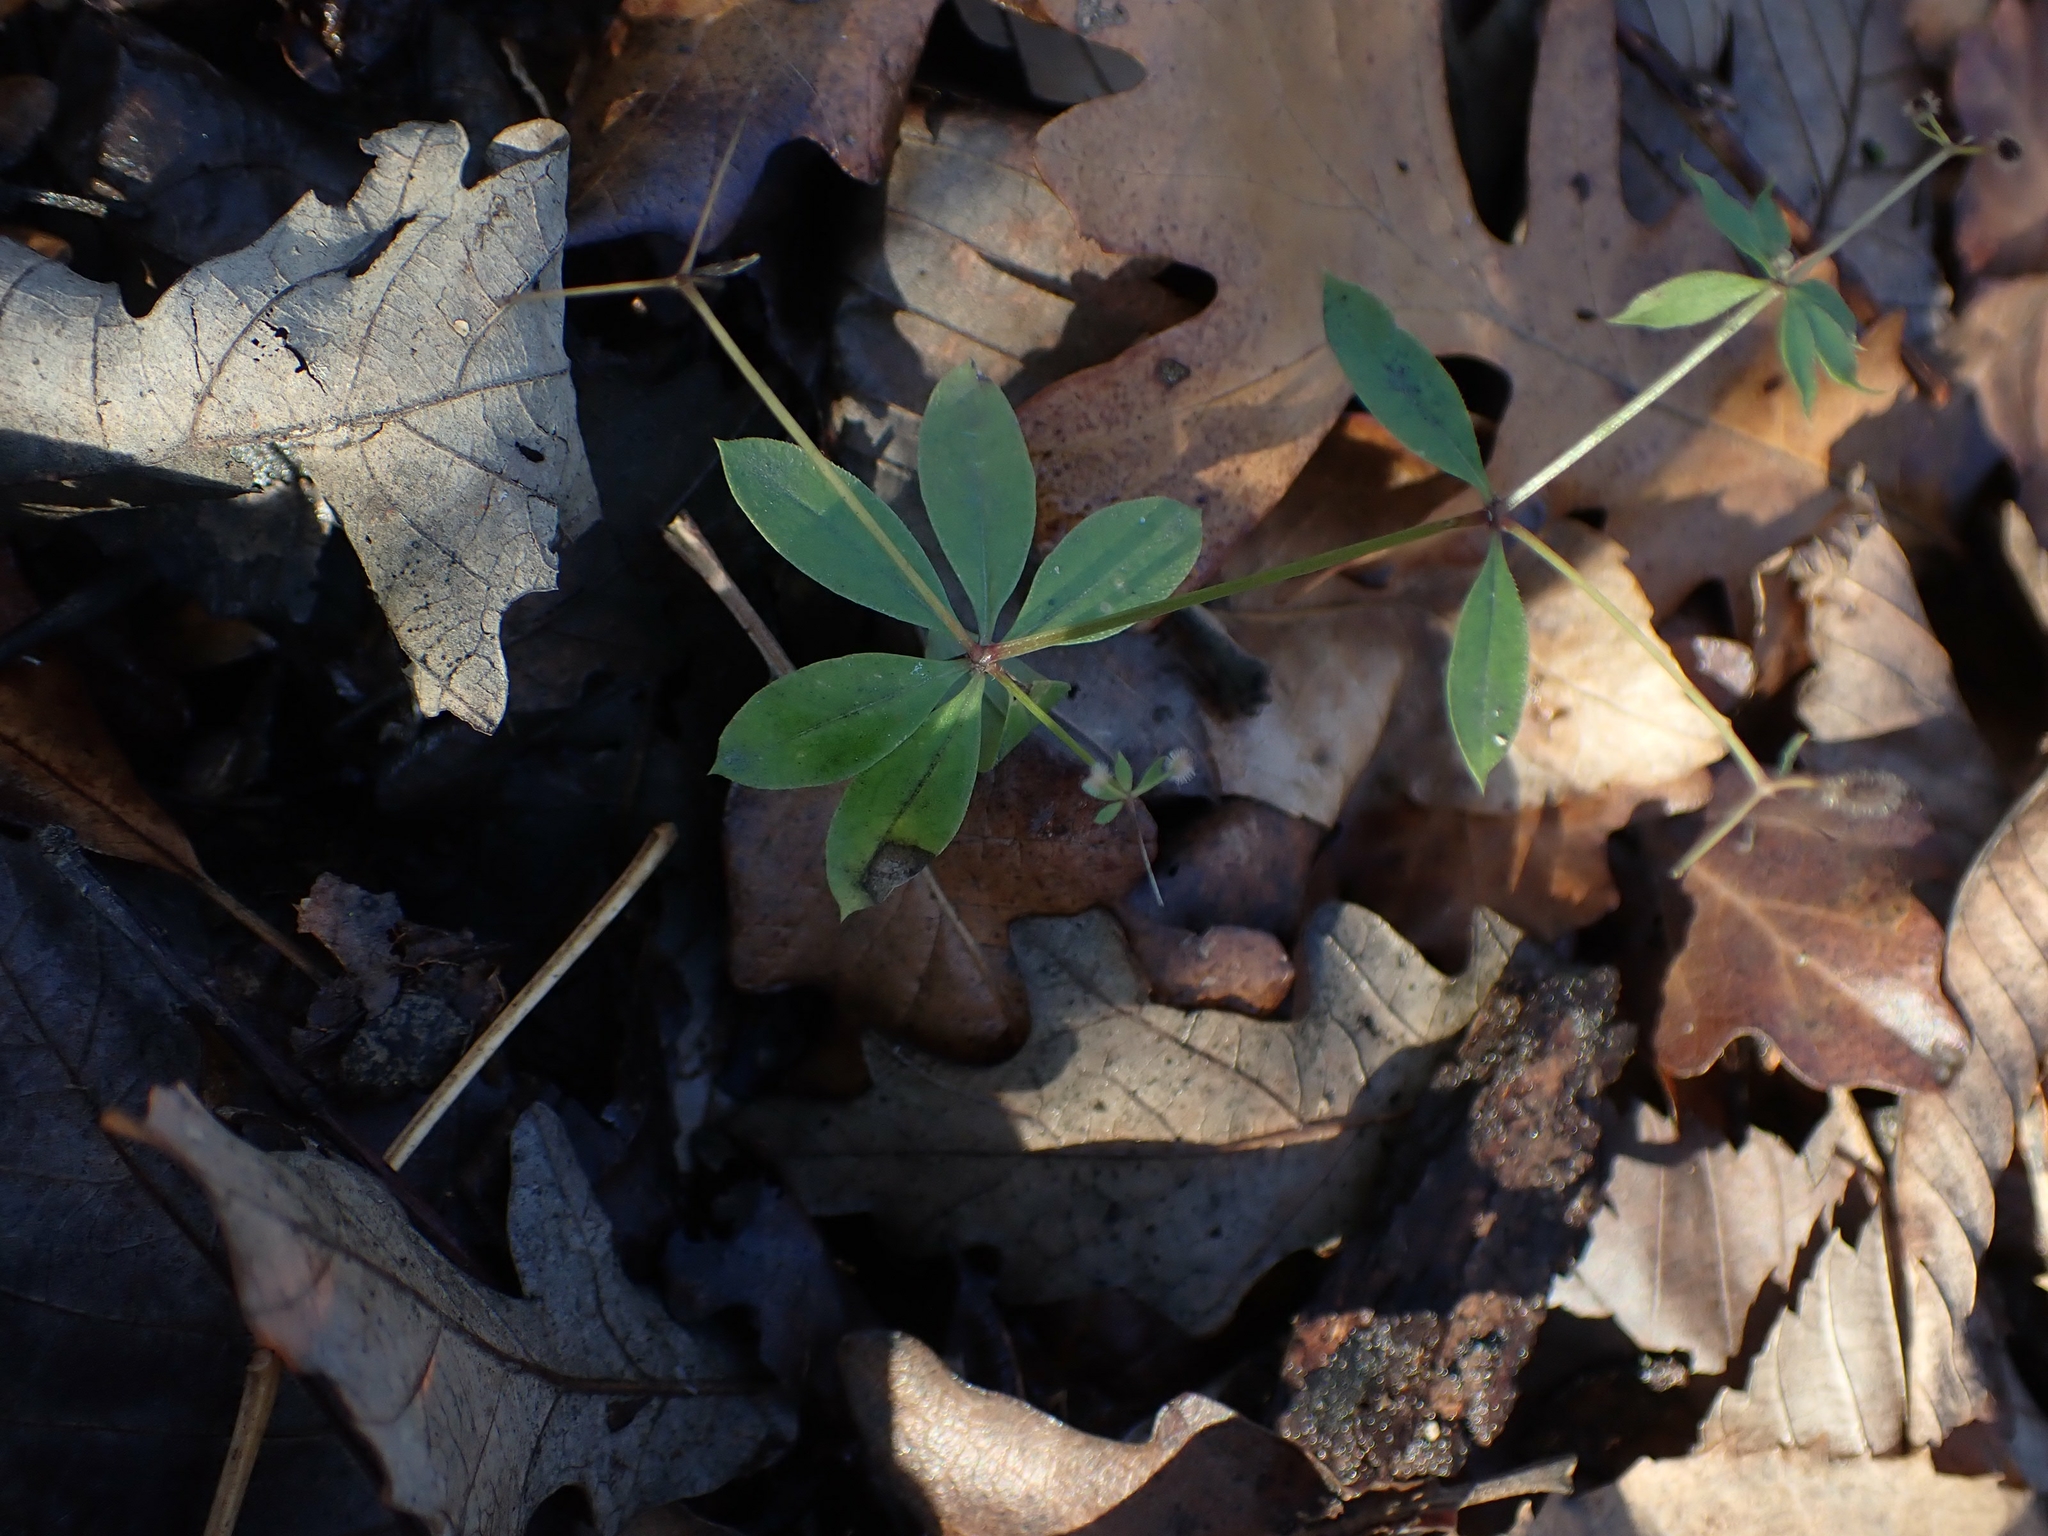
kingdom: Plantae
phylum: Tracheophyta
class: Magnoliopsida
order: Gentianales
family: Rubiaceae
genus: Galium
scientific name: Galium triflorum
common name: Fragrant bedstraw
